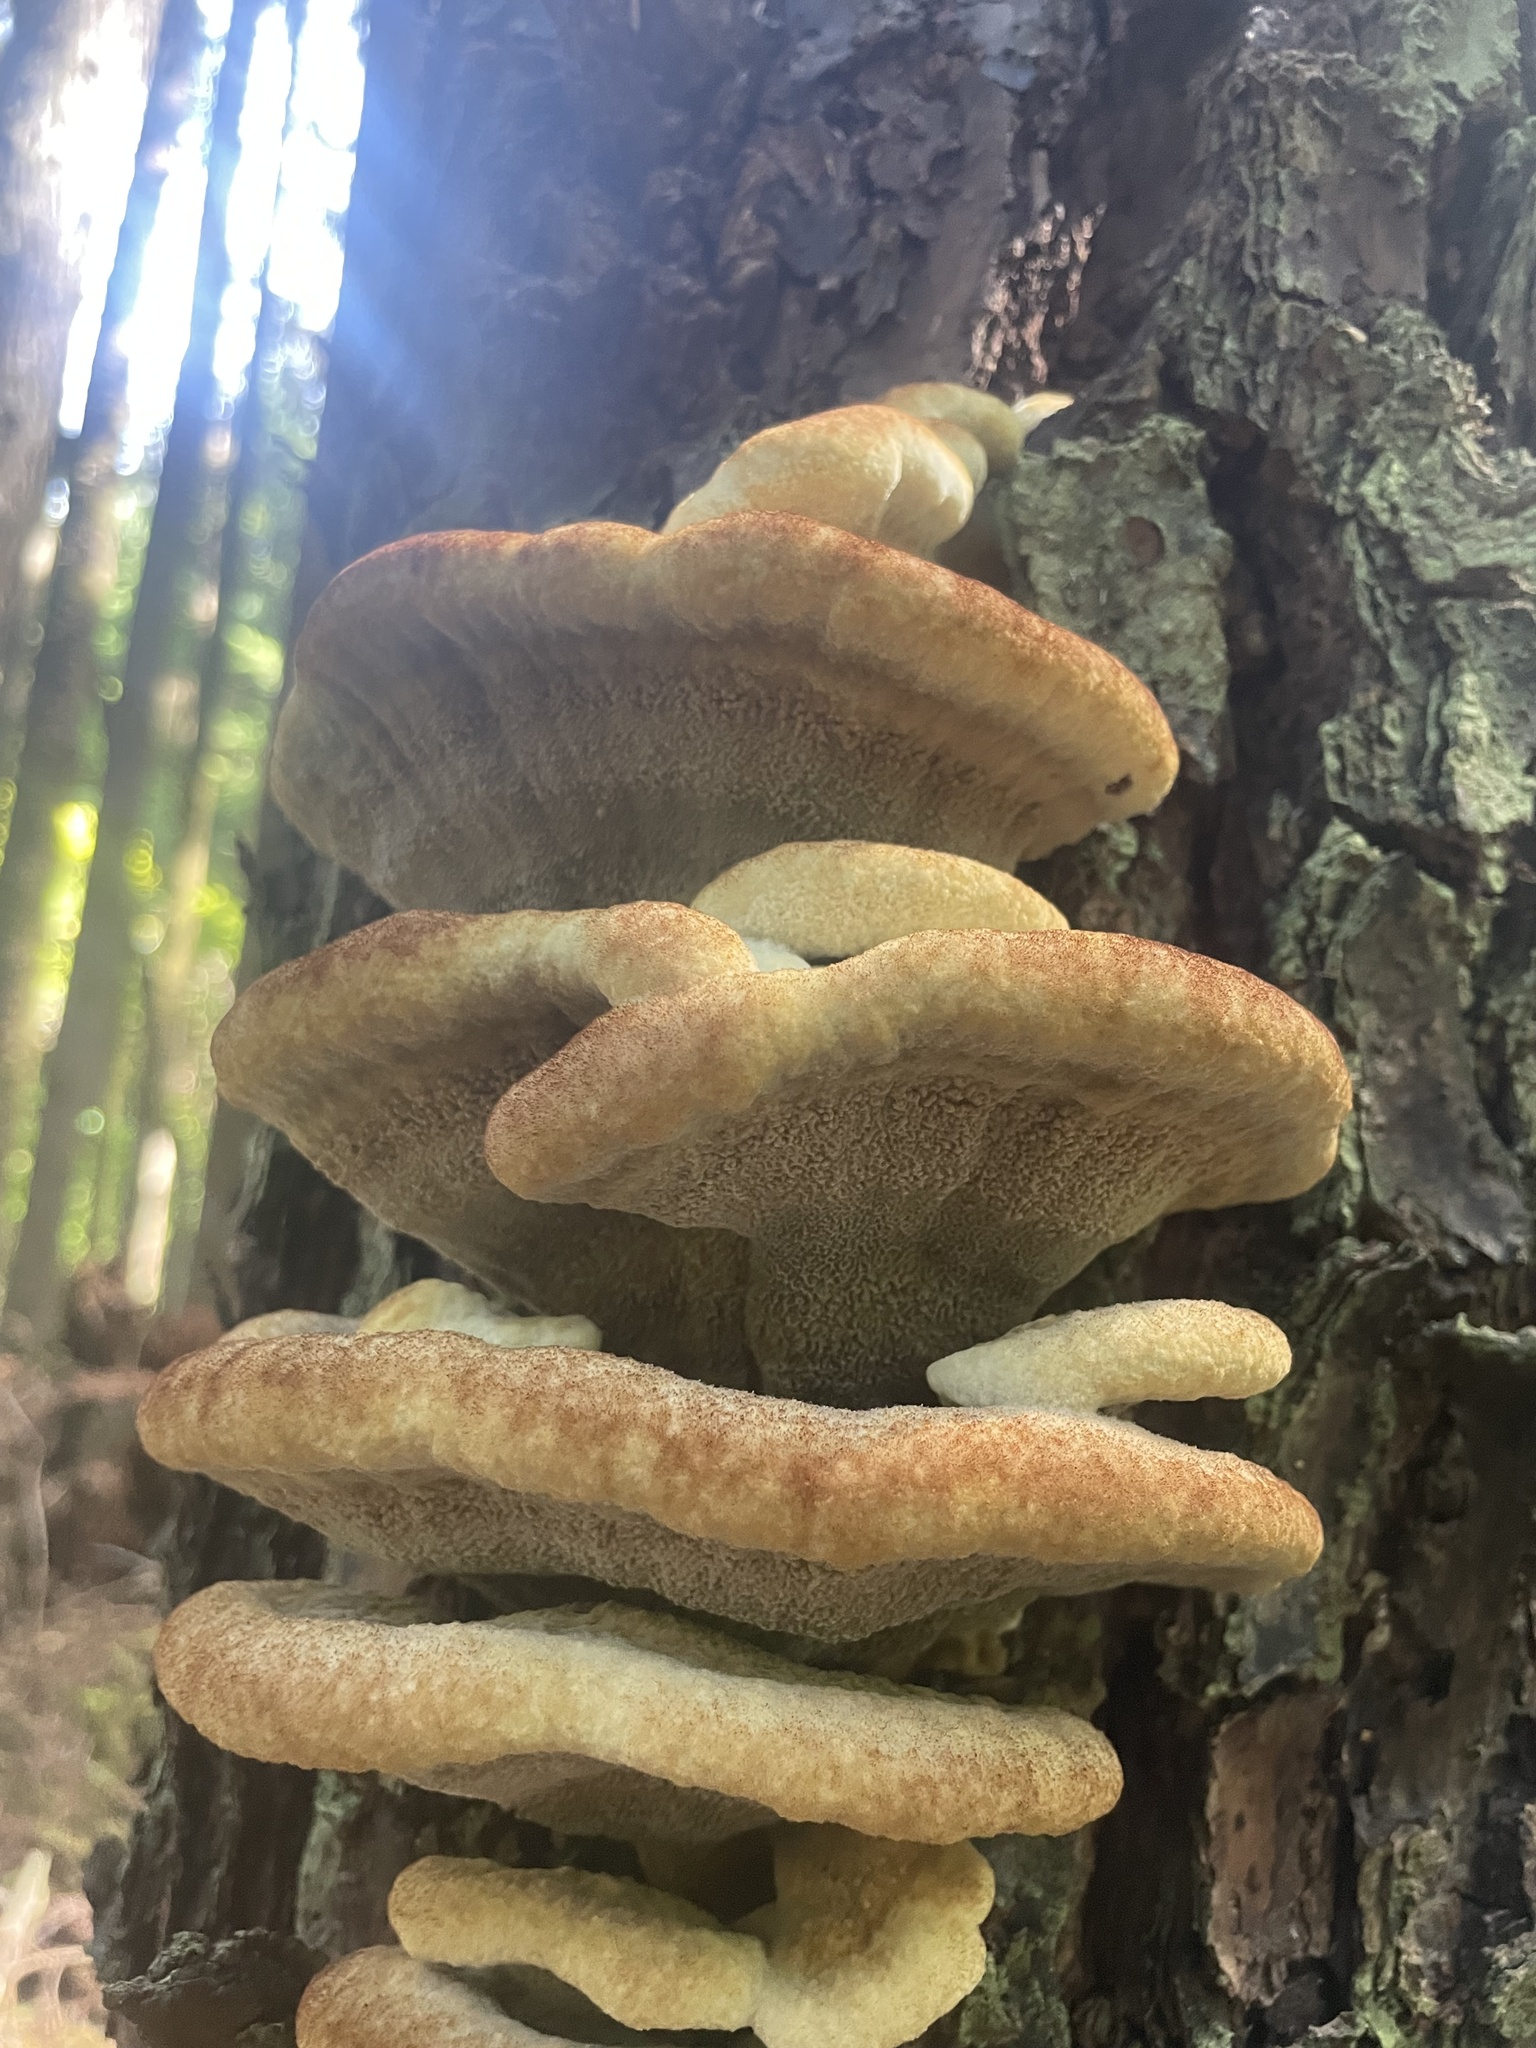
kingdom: Fungi
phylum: Basidiomycota
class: Agaricomycetes
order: Polyporales
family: Laetiporaceae
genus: Phaeolus
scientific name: Phaeolus schweinitzii
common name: Dyer's mazegill
